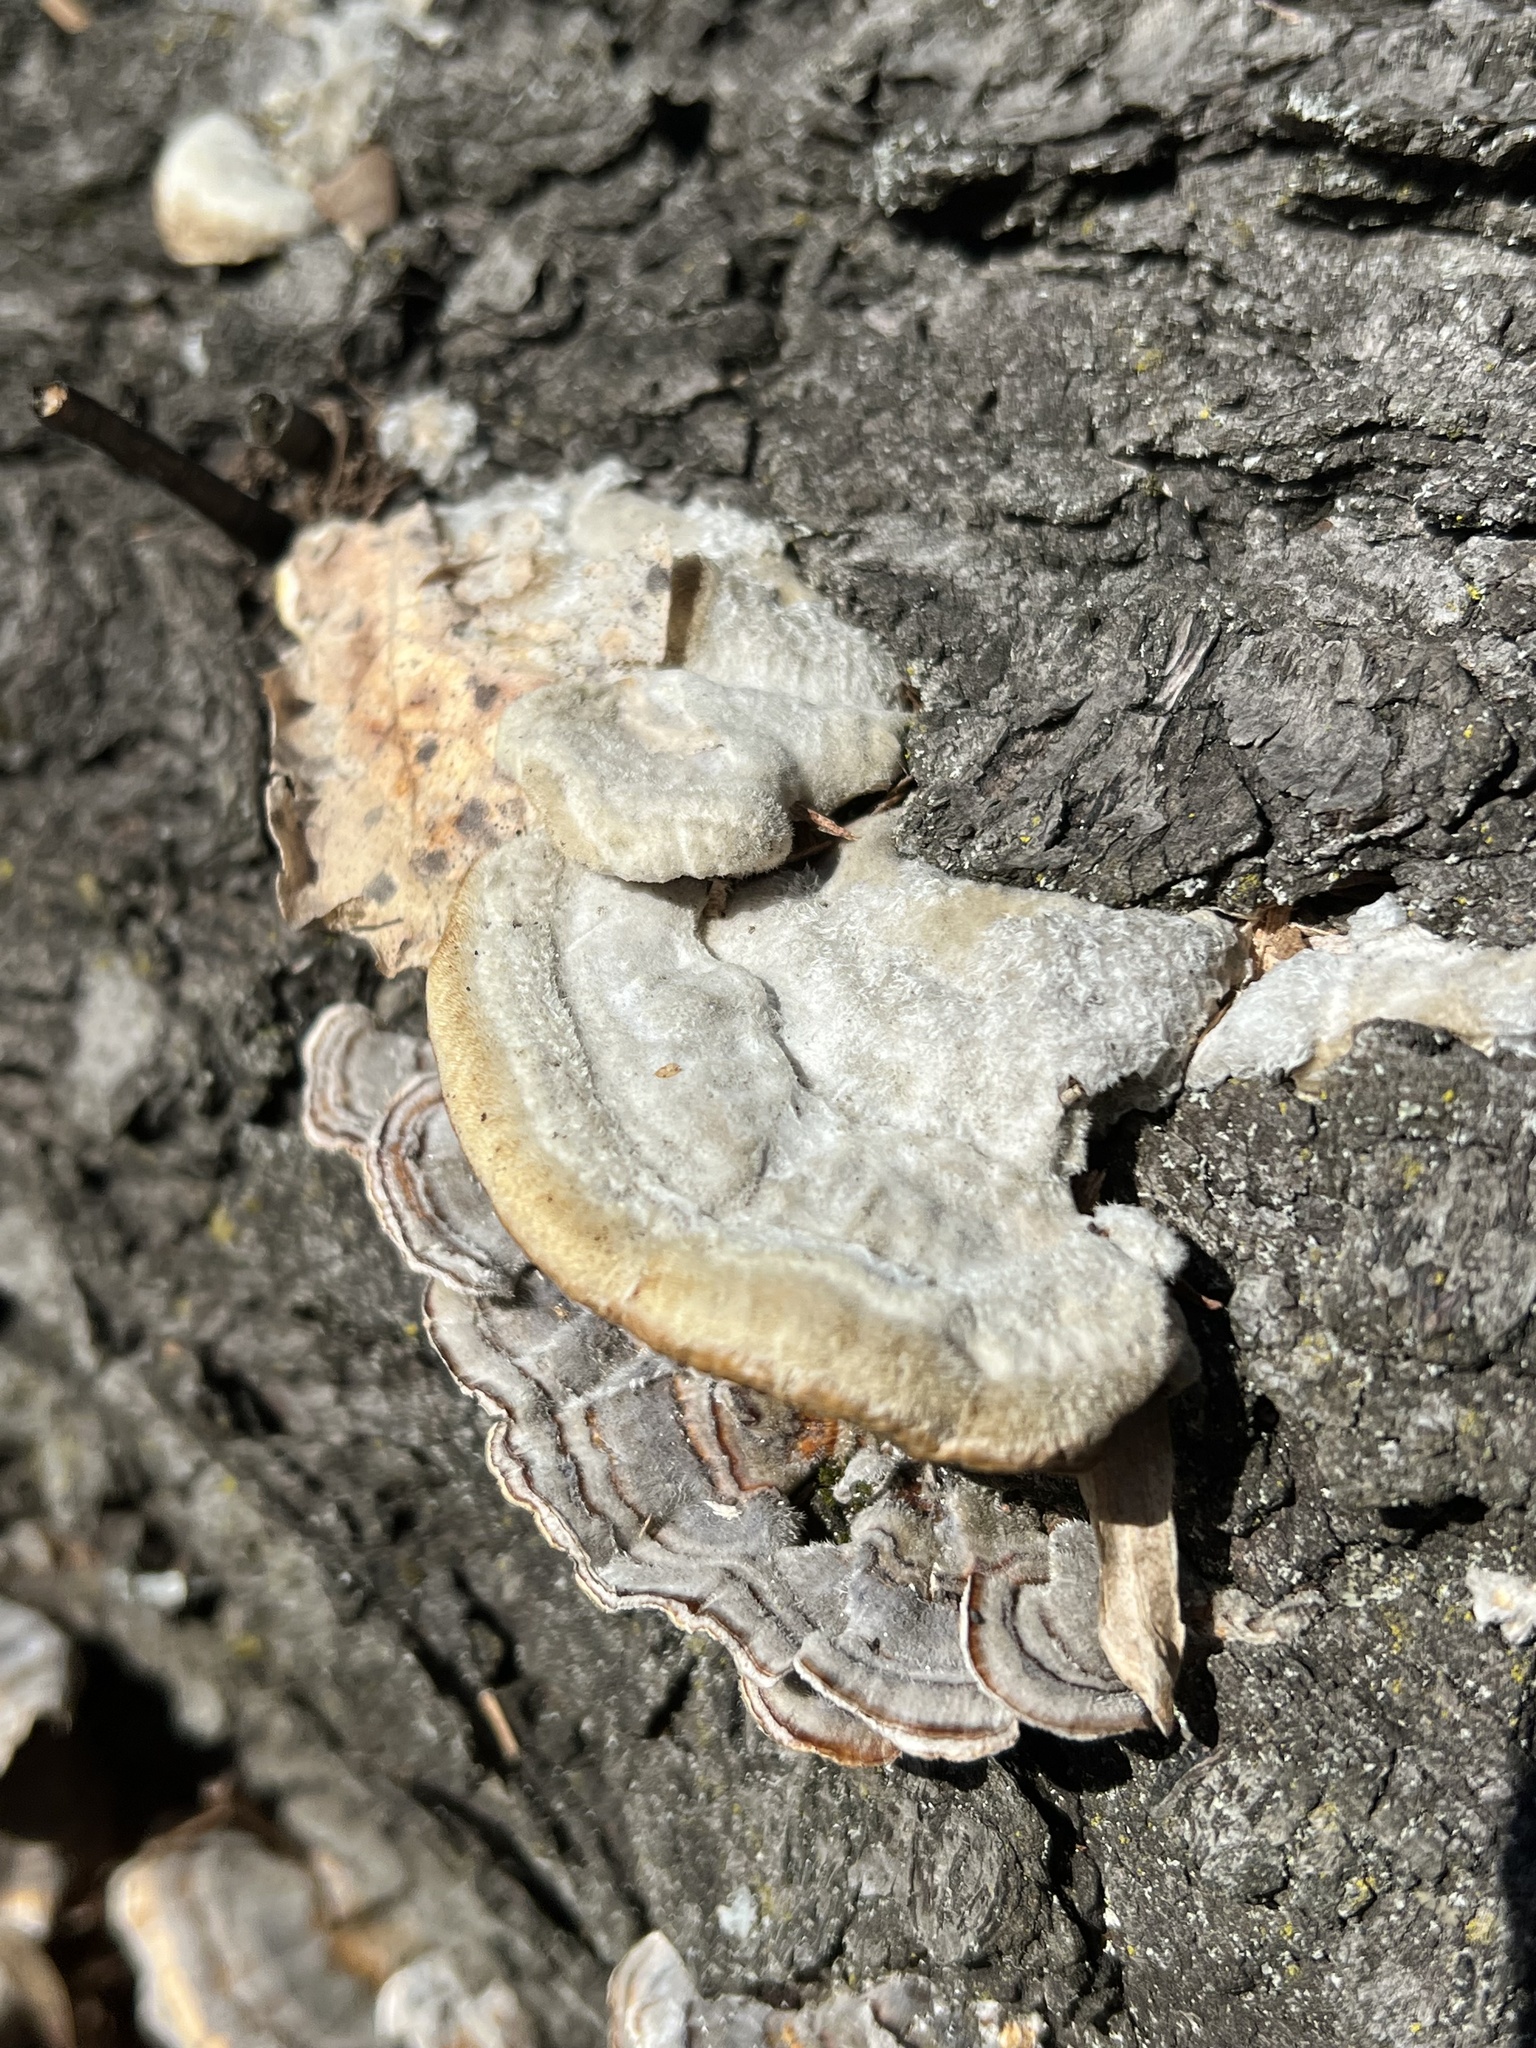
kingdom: Fungi
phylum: Basidiomycota
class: Agaricomycetes
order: Polyporales
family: Polyporaceae
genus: Trametes
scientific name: Trametes hirsuta
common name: Hairy bracket
